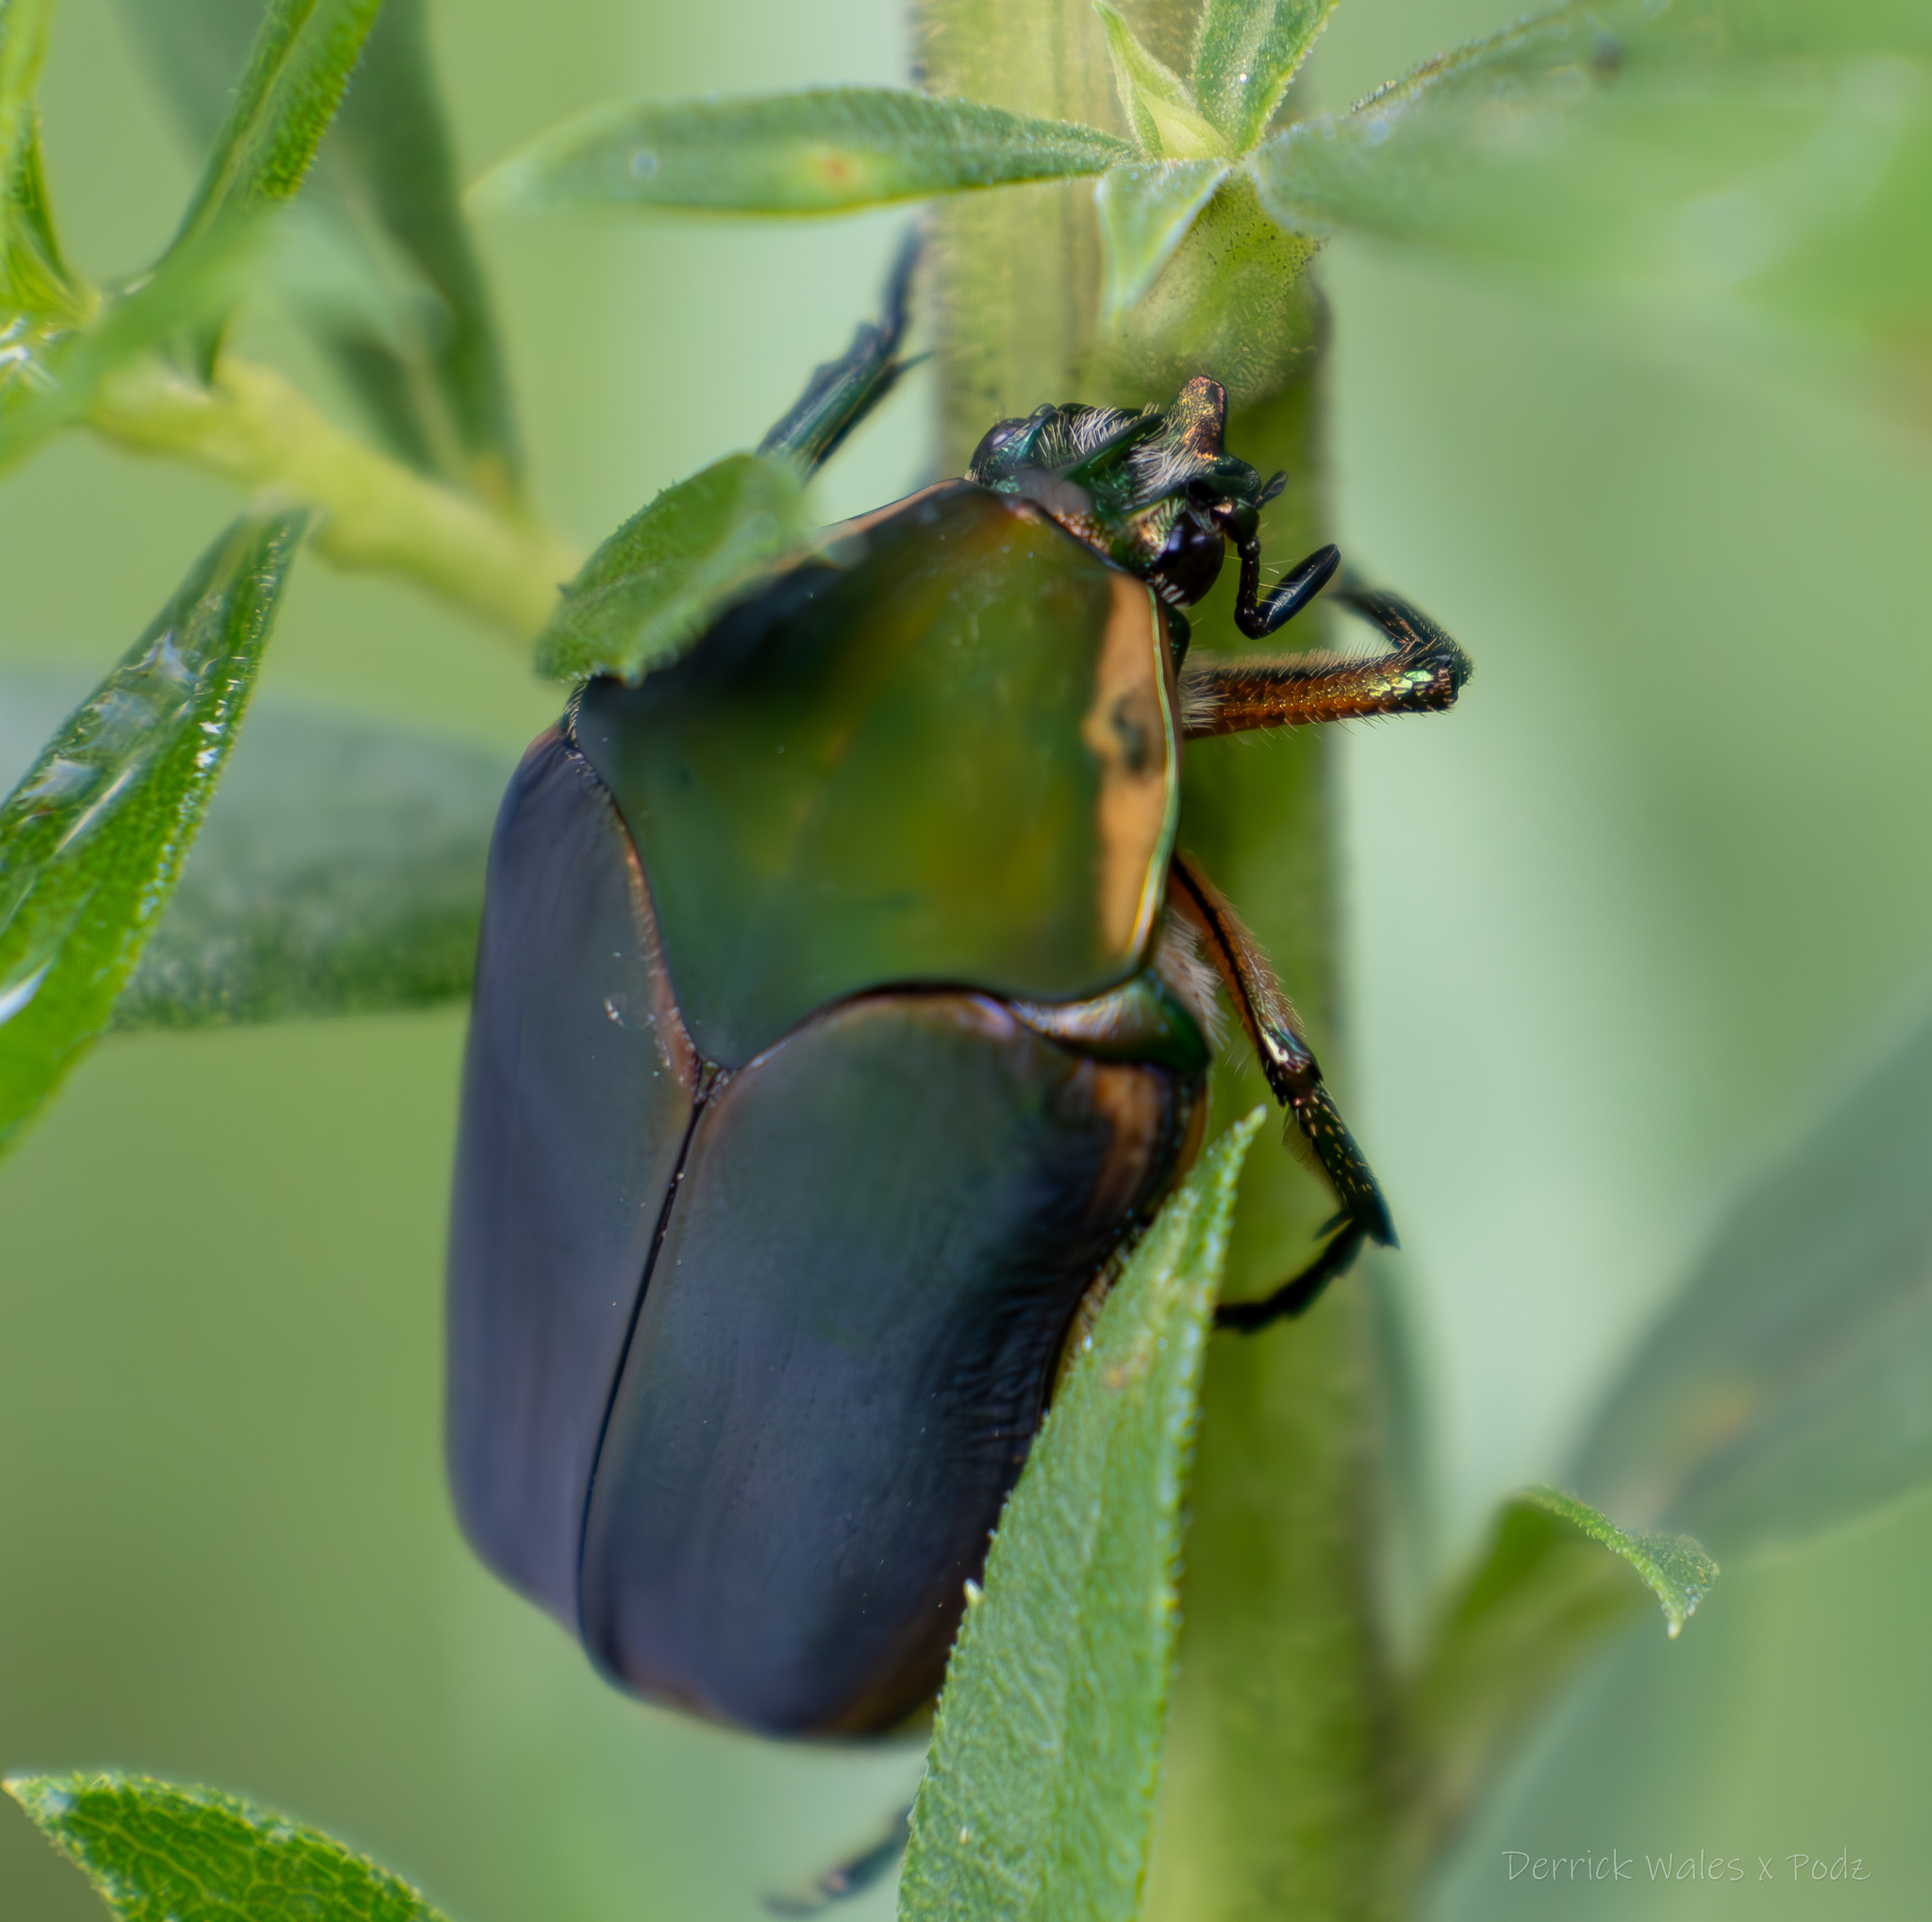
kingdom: Animalia
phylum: Arthropoda
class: Insecta
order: Coleoptera
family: Scarabaeidae
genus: Cotinis
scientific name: Cotinis nitida
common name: Common green june beetle
